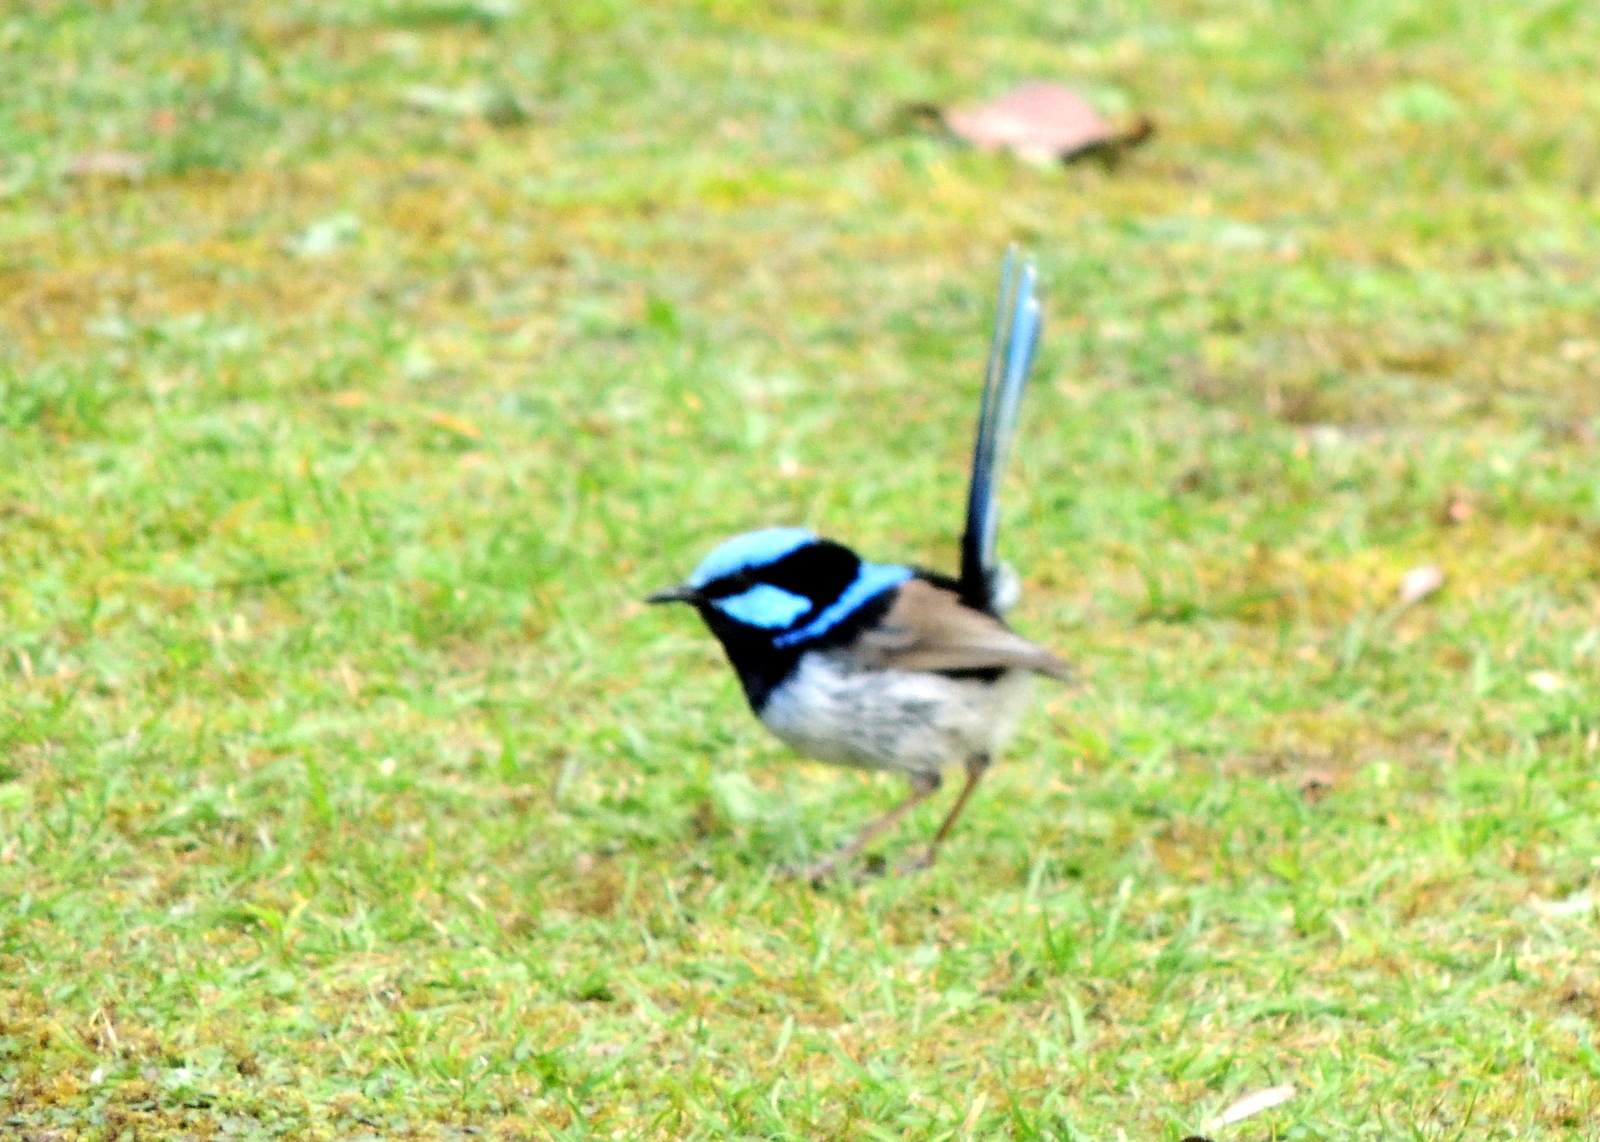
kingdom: Animalia
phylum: Chordata
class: Aves
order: Passeriformes
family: Maluridae
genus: Malurus
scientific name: Malurus cyaneus
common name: Superb fairywren
